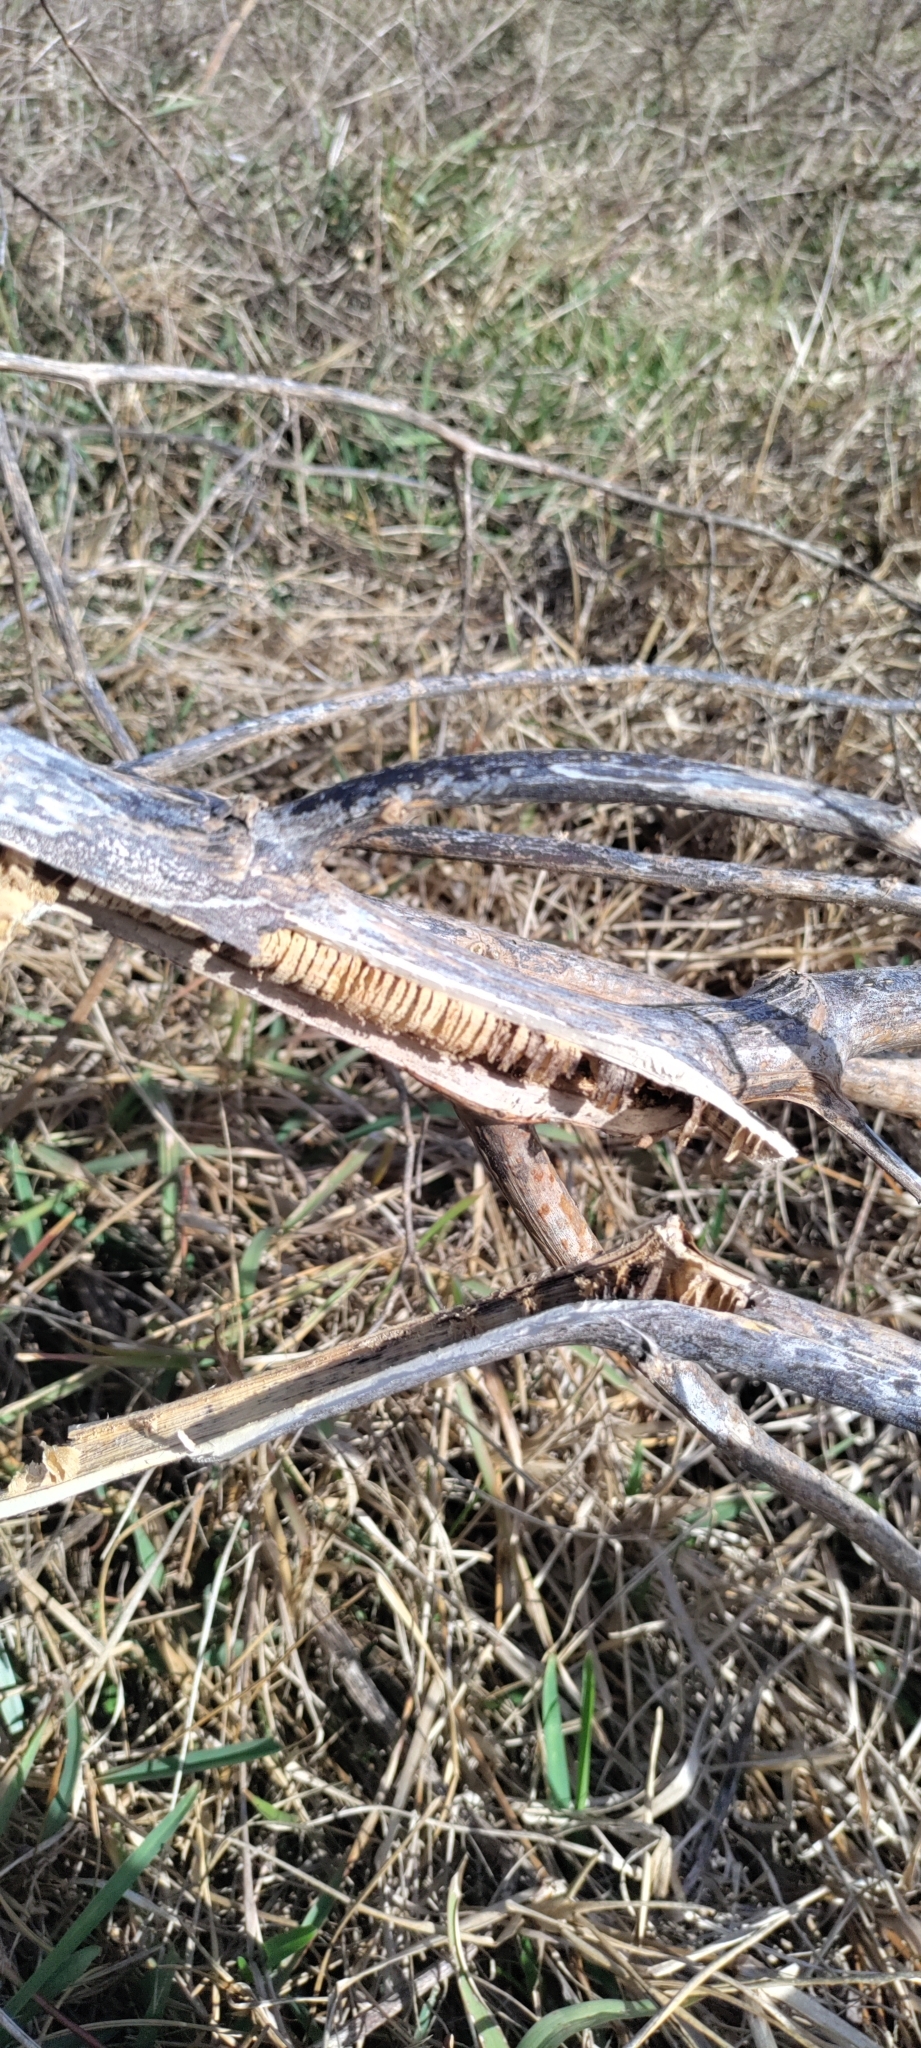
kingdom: Plantae
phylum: Tracheophyta
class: Magnoliopsida
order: Caryophyllales
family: Phytolaccaceae
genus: Phytolacca
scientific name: Phytolacca americana
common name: American pokeweed
